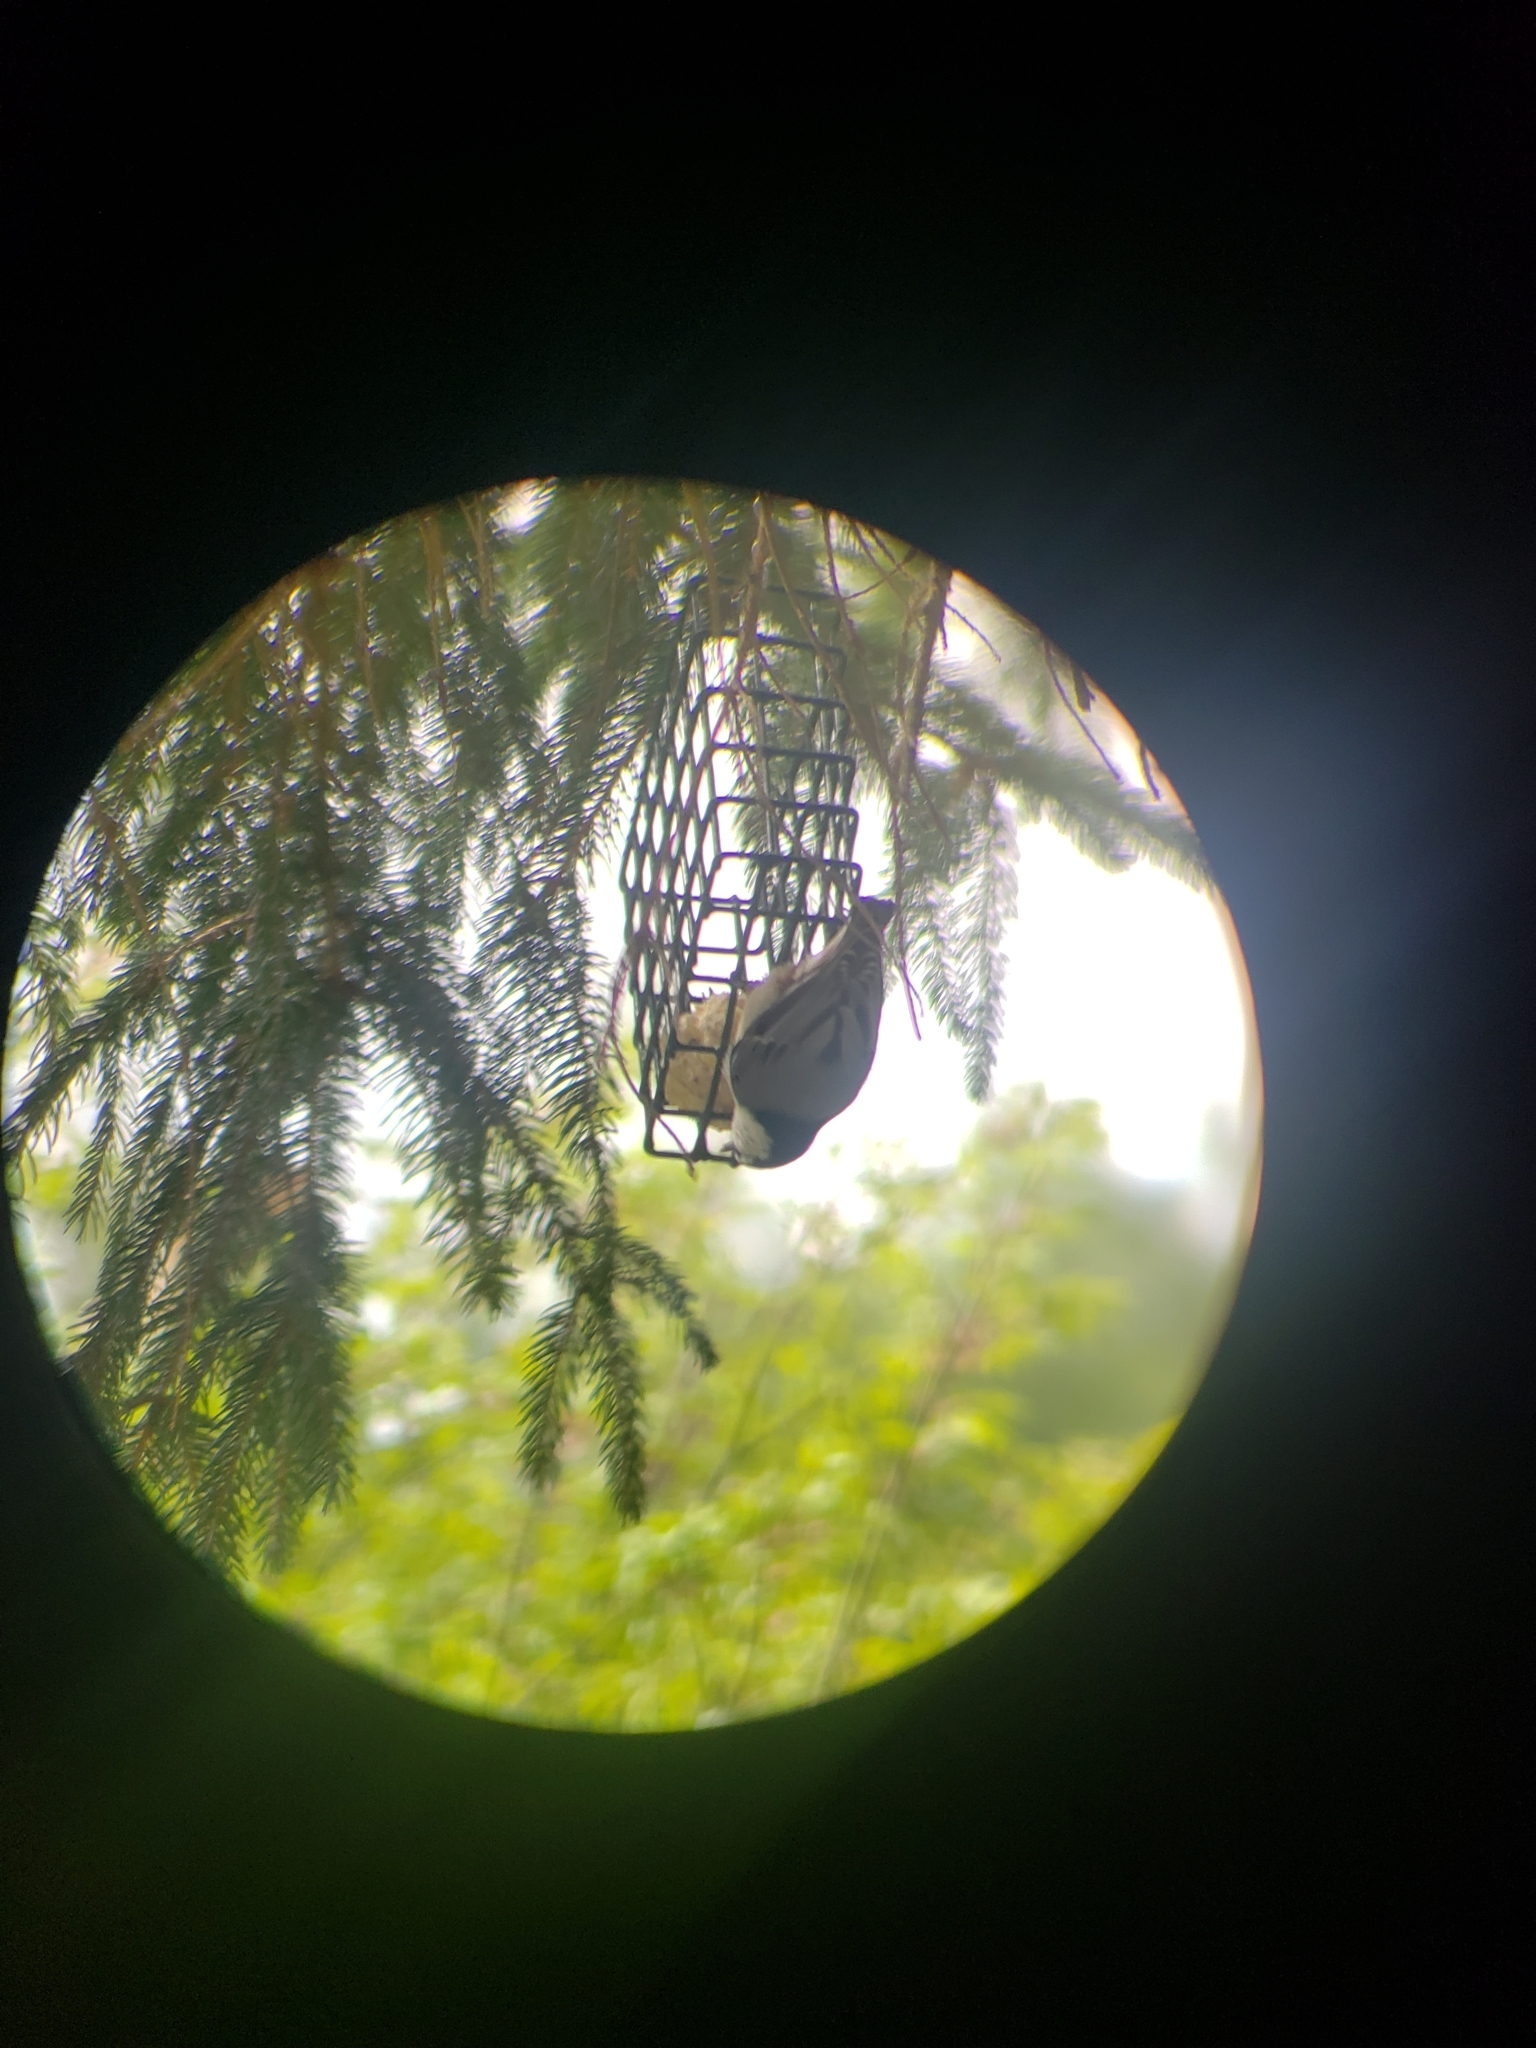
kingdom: Animalia
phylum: Chordata
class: Aves
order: Passeriformes
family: Sittidae
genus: Sitta
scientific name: Sitta carolinensis
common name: White-breasted nuthatch
